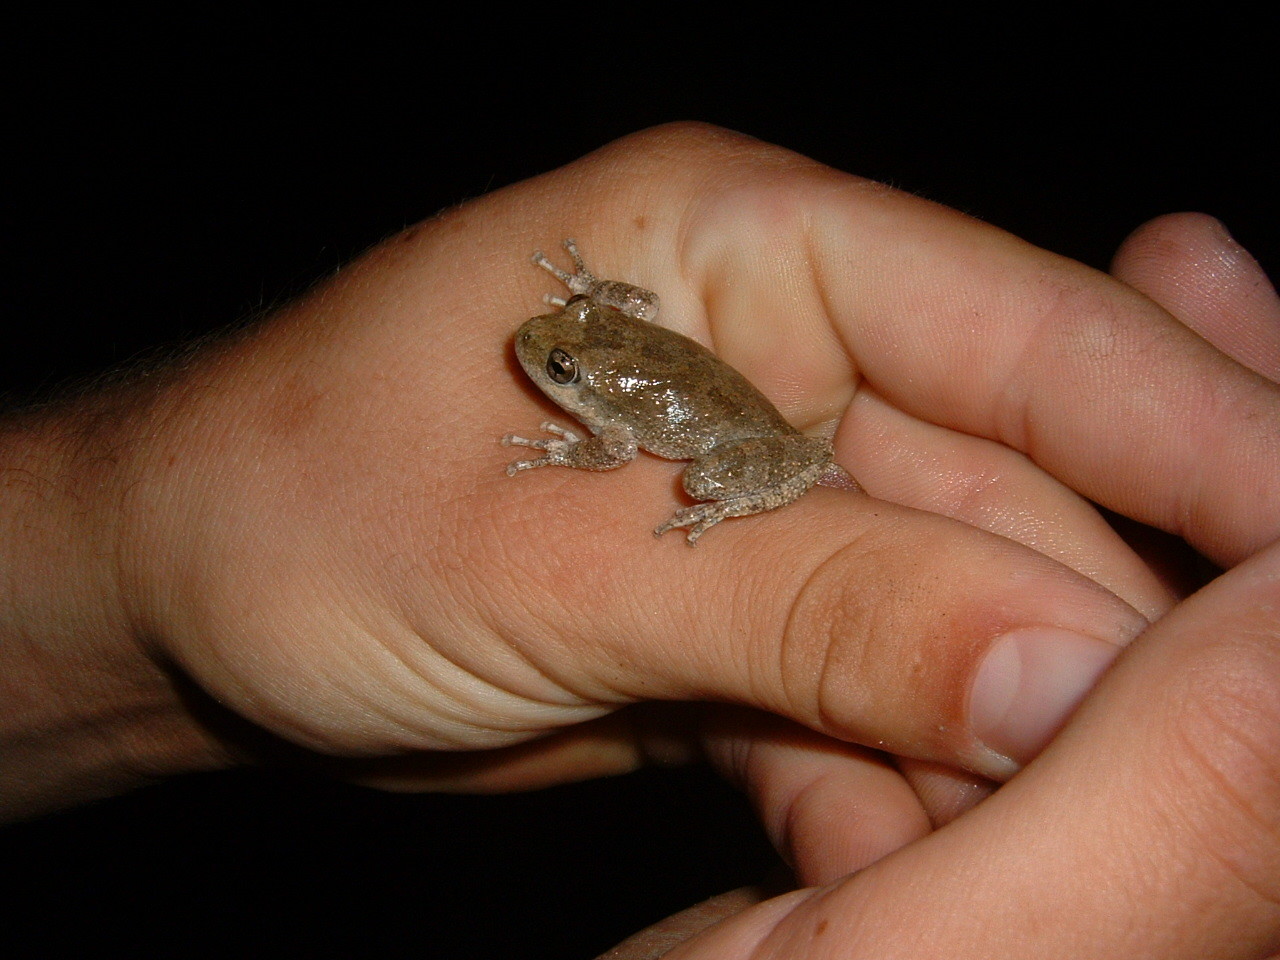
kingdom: Animalia
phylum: Chordata
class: Amphibia
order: Anura
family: Hylidae
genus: Pseudacris
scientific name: Pseudacris cadaverina
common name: California chorus frog
